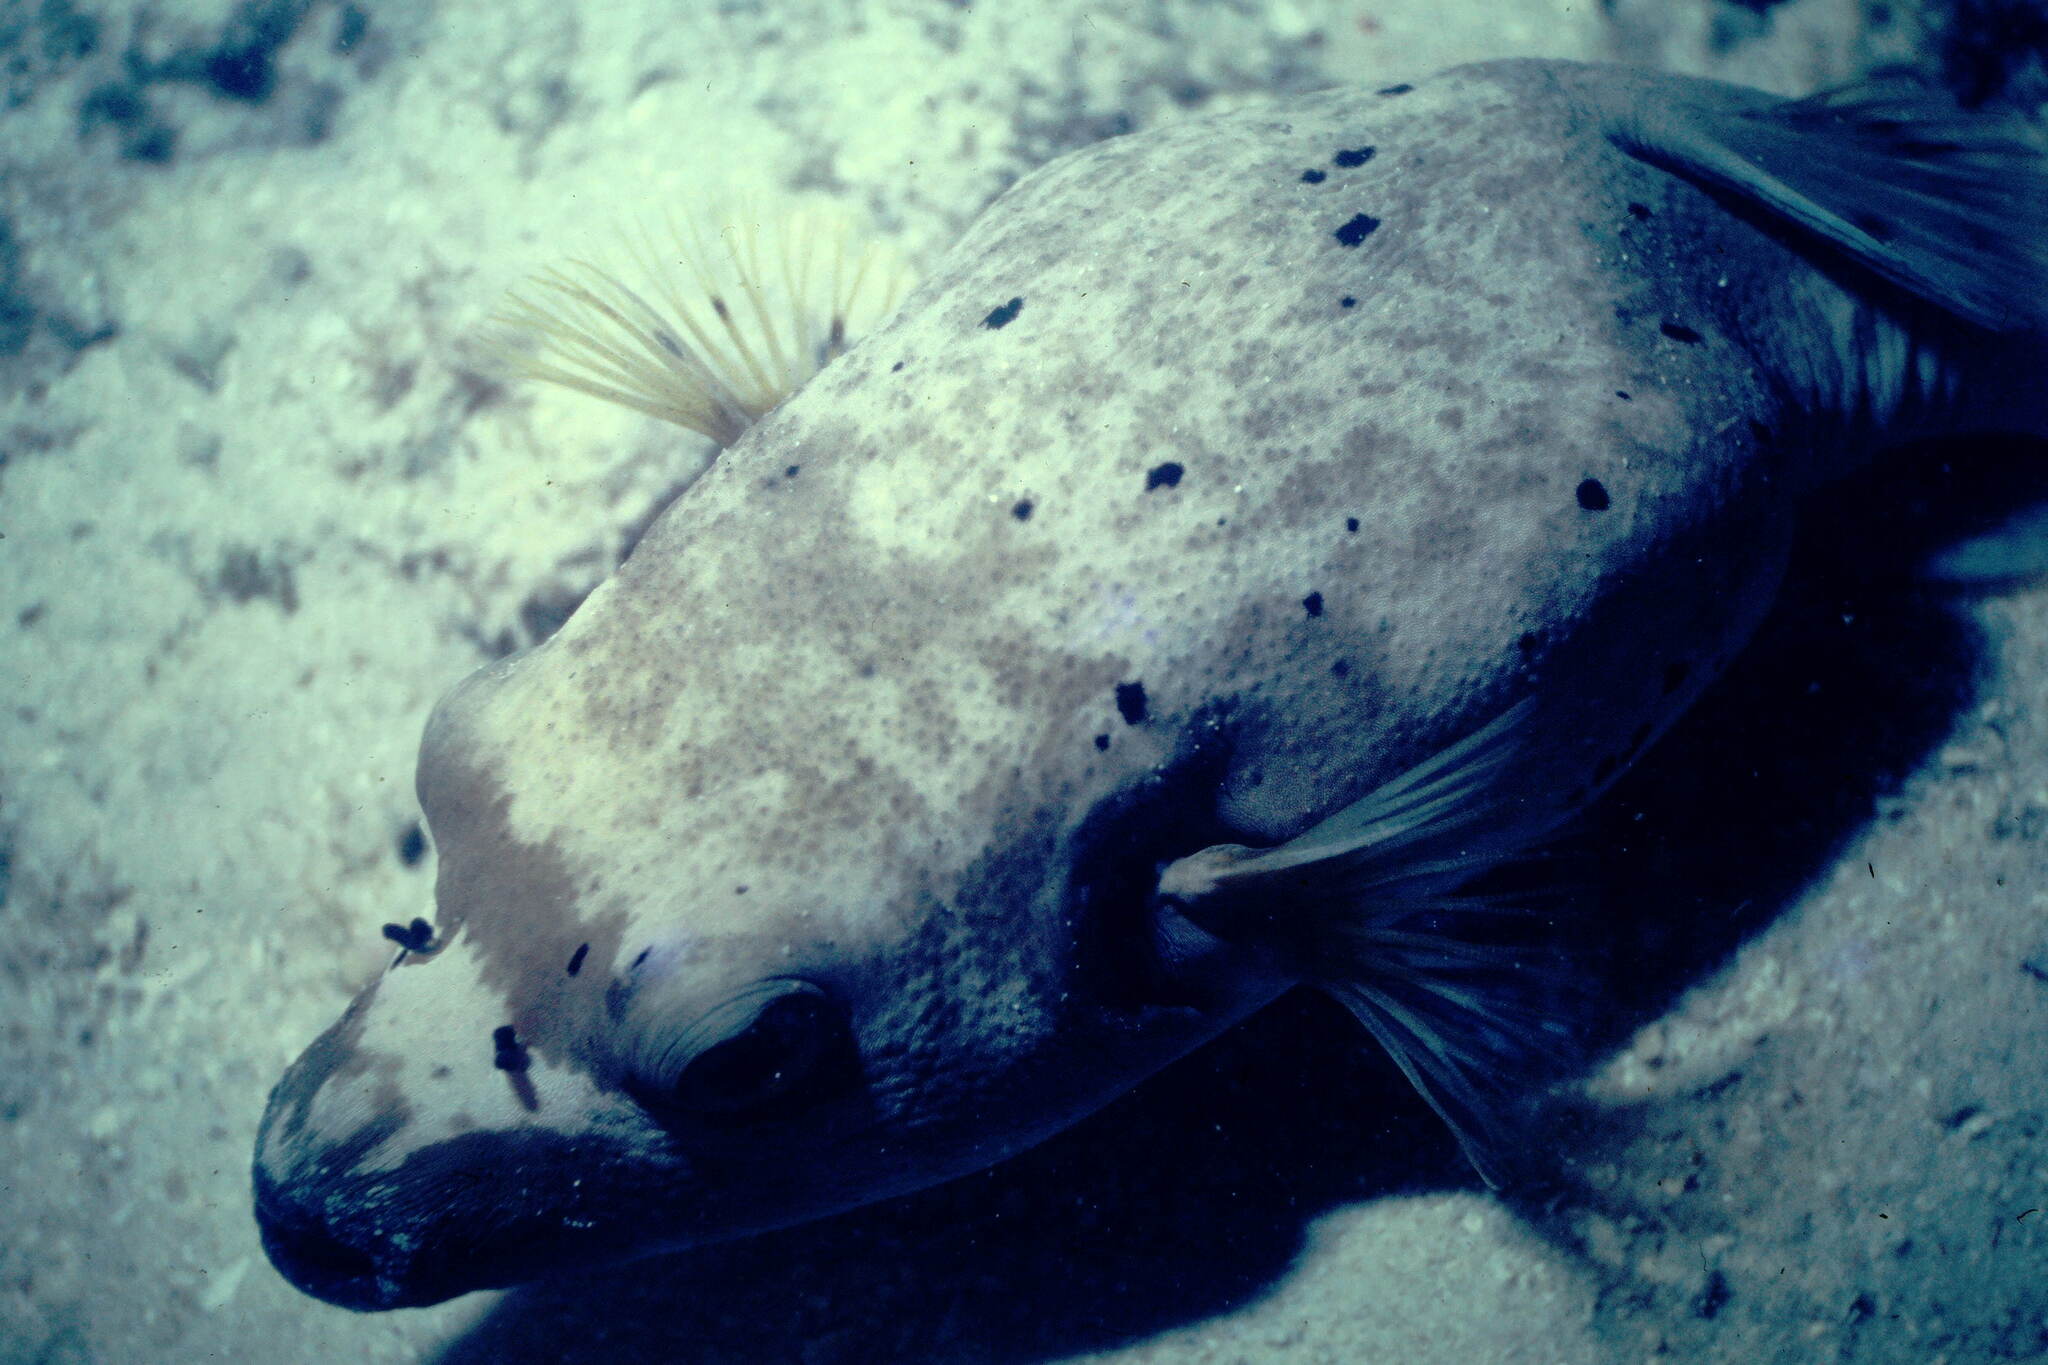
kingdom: Animalia
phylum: Chordata
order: Tetraodontiformes
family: Tetraodontidae
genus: Arothron
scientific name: Arothron nigropunctatus
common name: Black spotted blow fish
